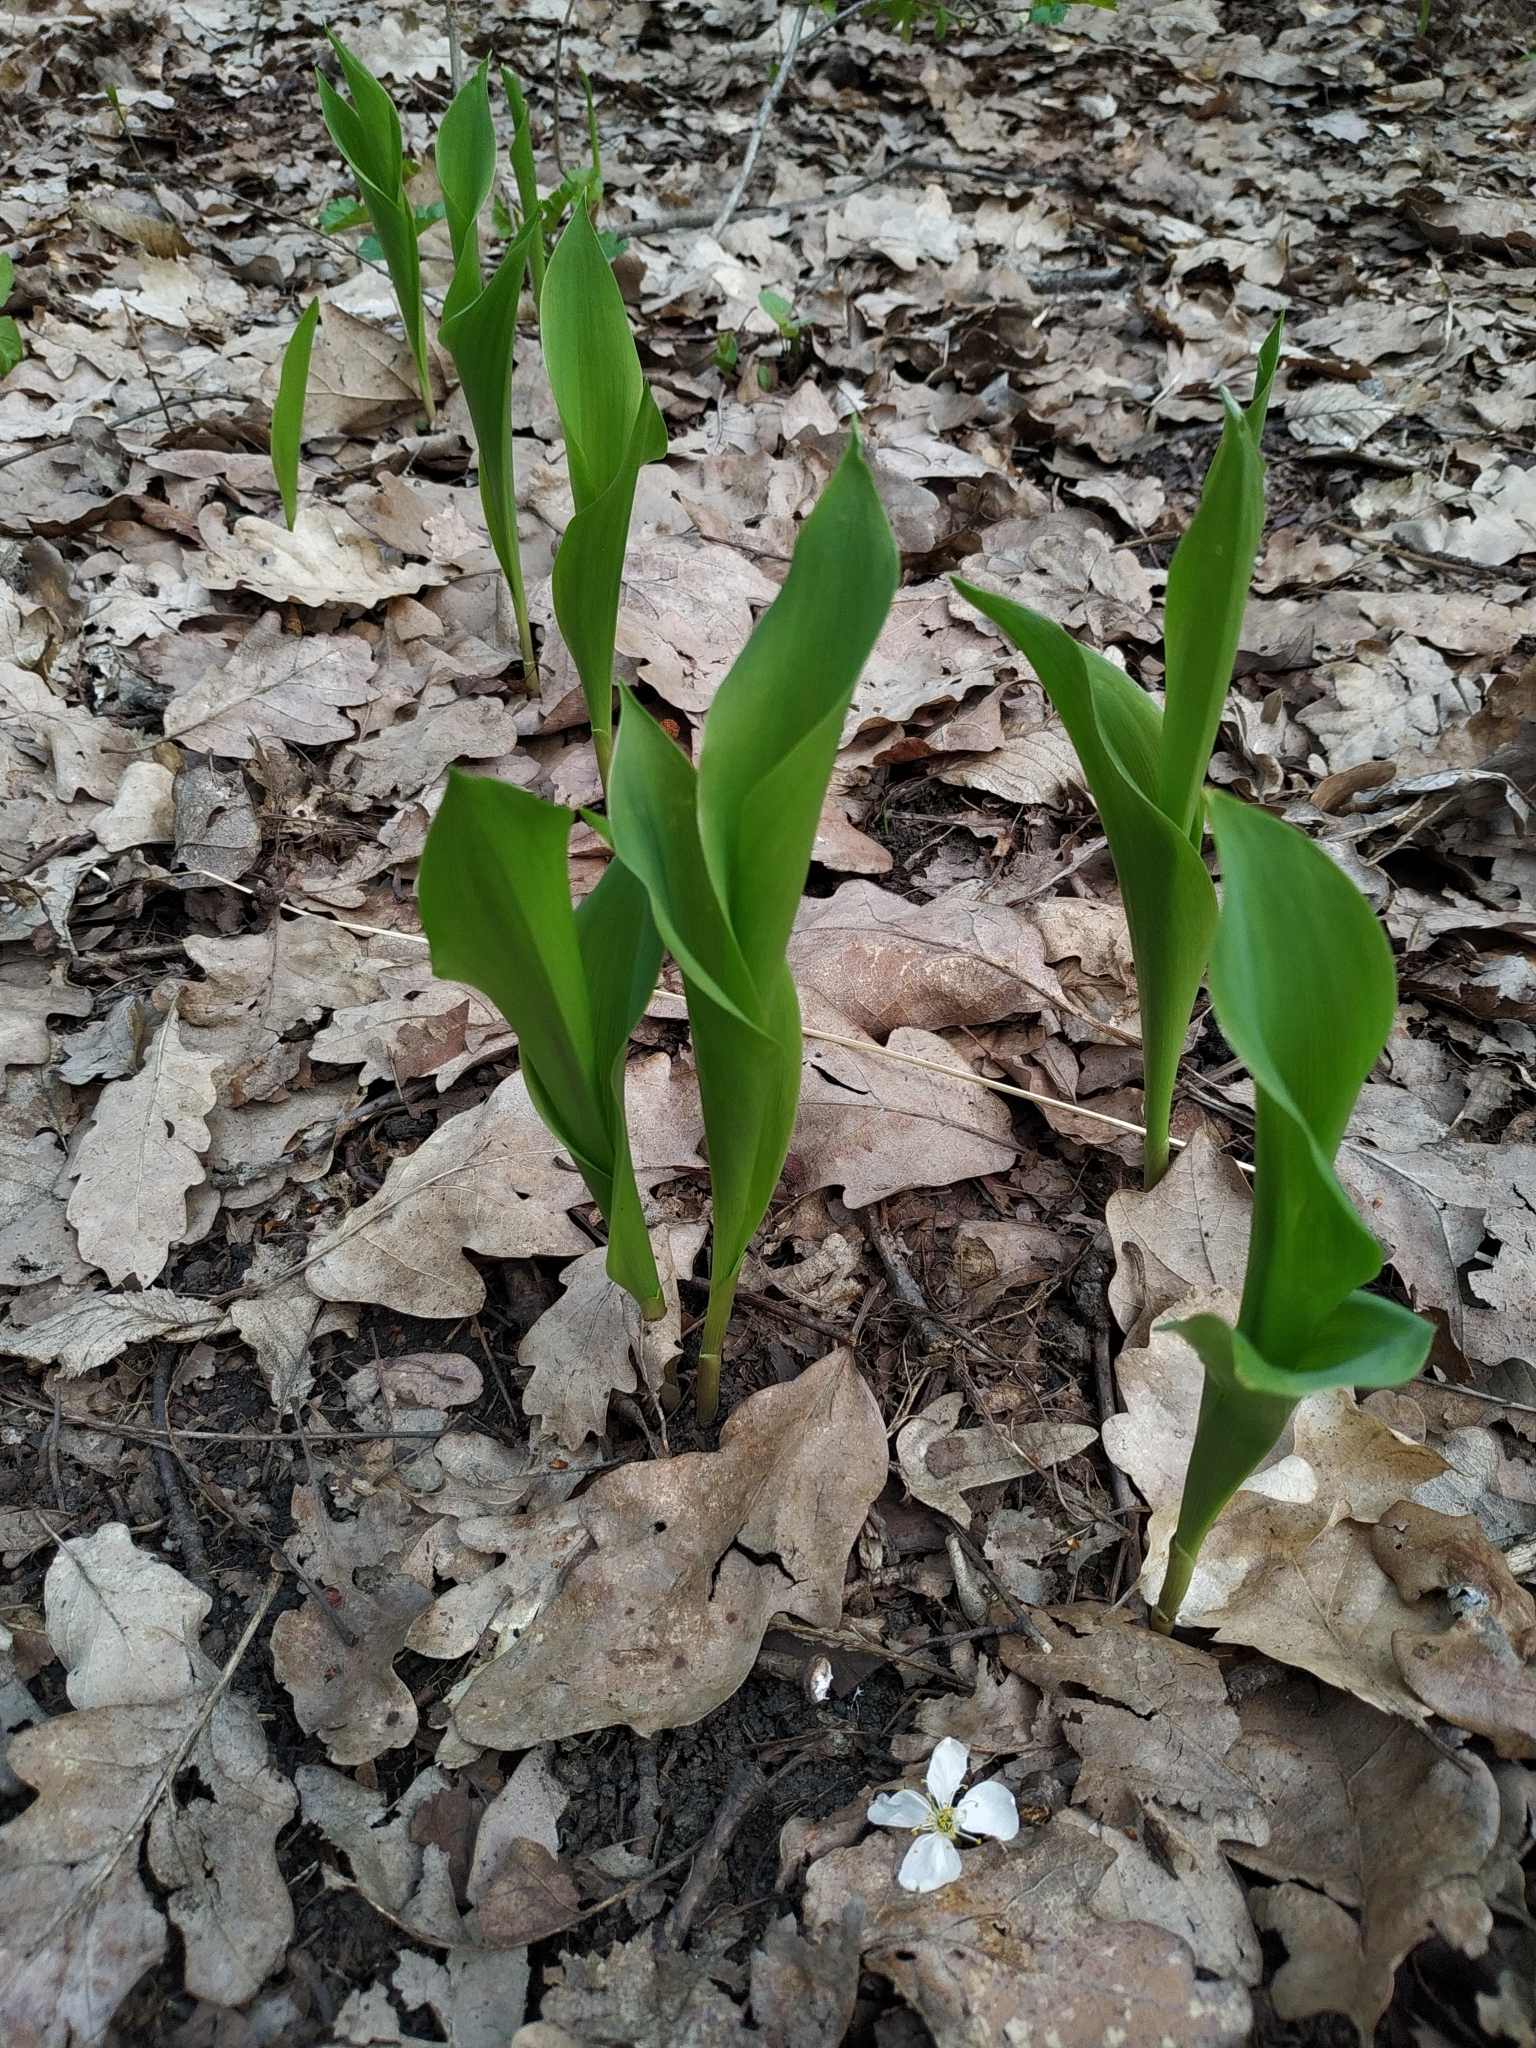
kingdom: Plantae
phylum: Tracheophyta
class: Liliopsida
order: Asparagales
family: Asparagaceae
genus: Convallaria
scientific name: Convallaria majalis
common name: Lily-of-the-valley
